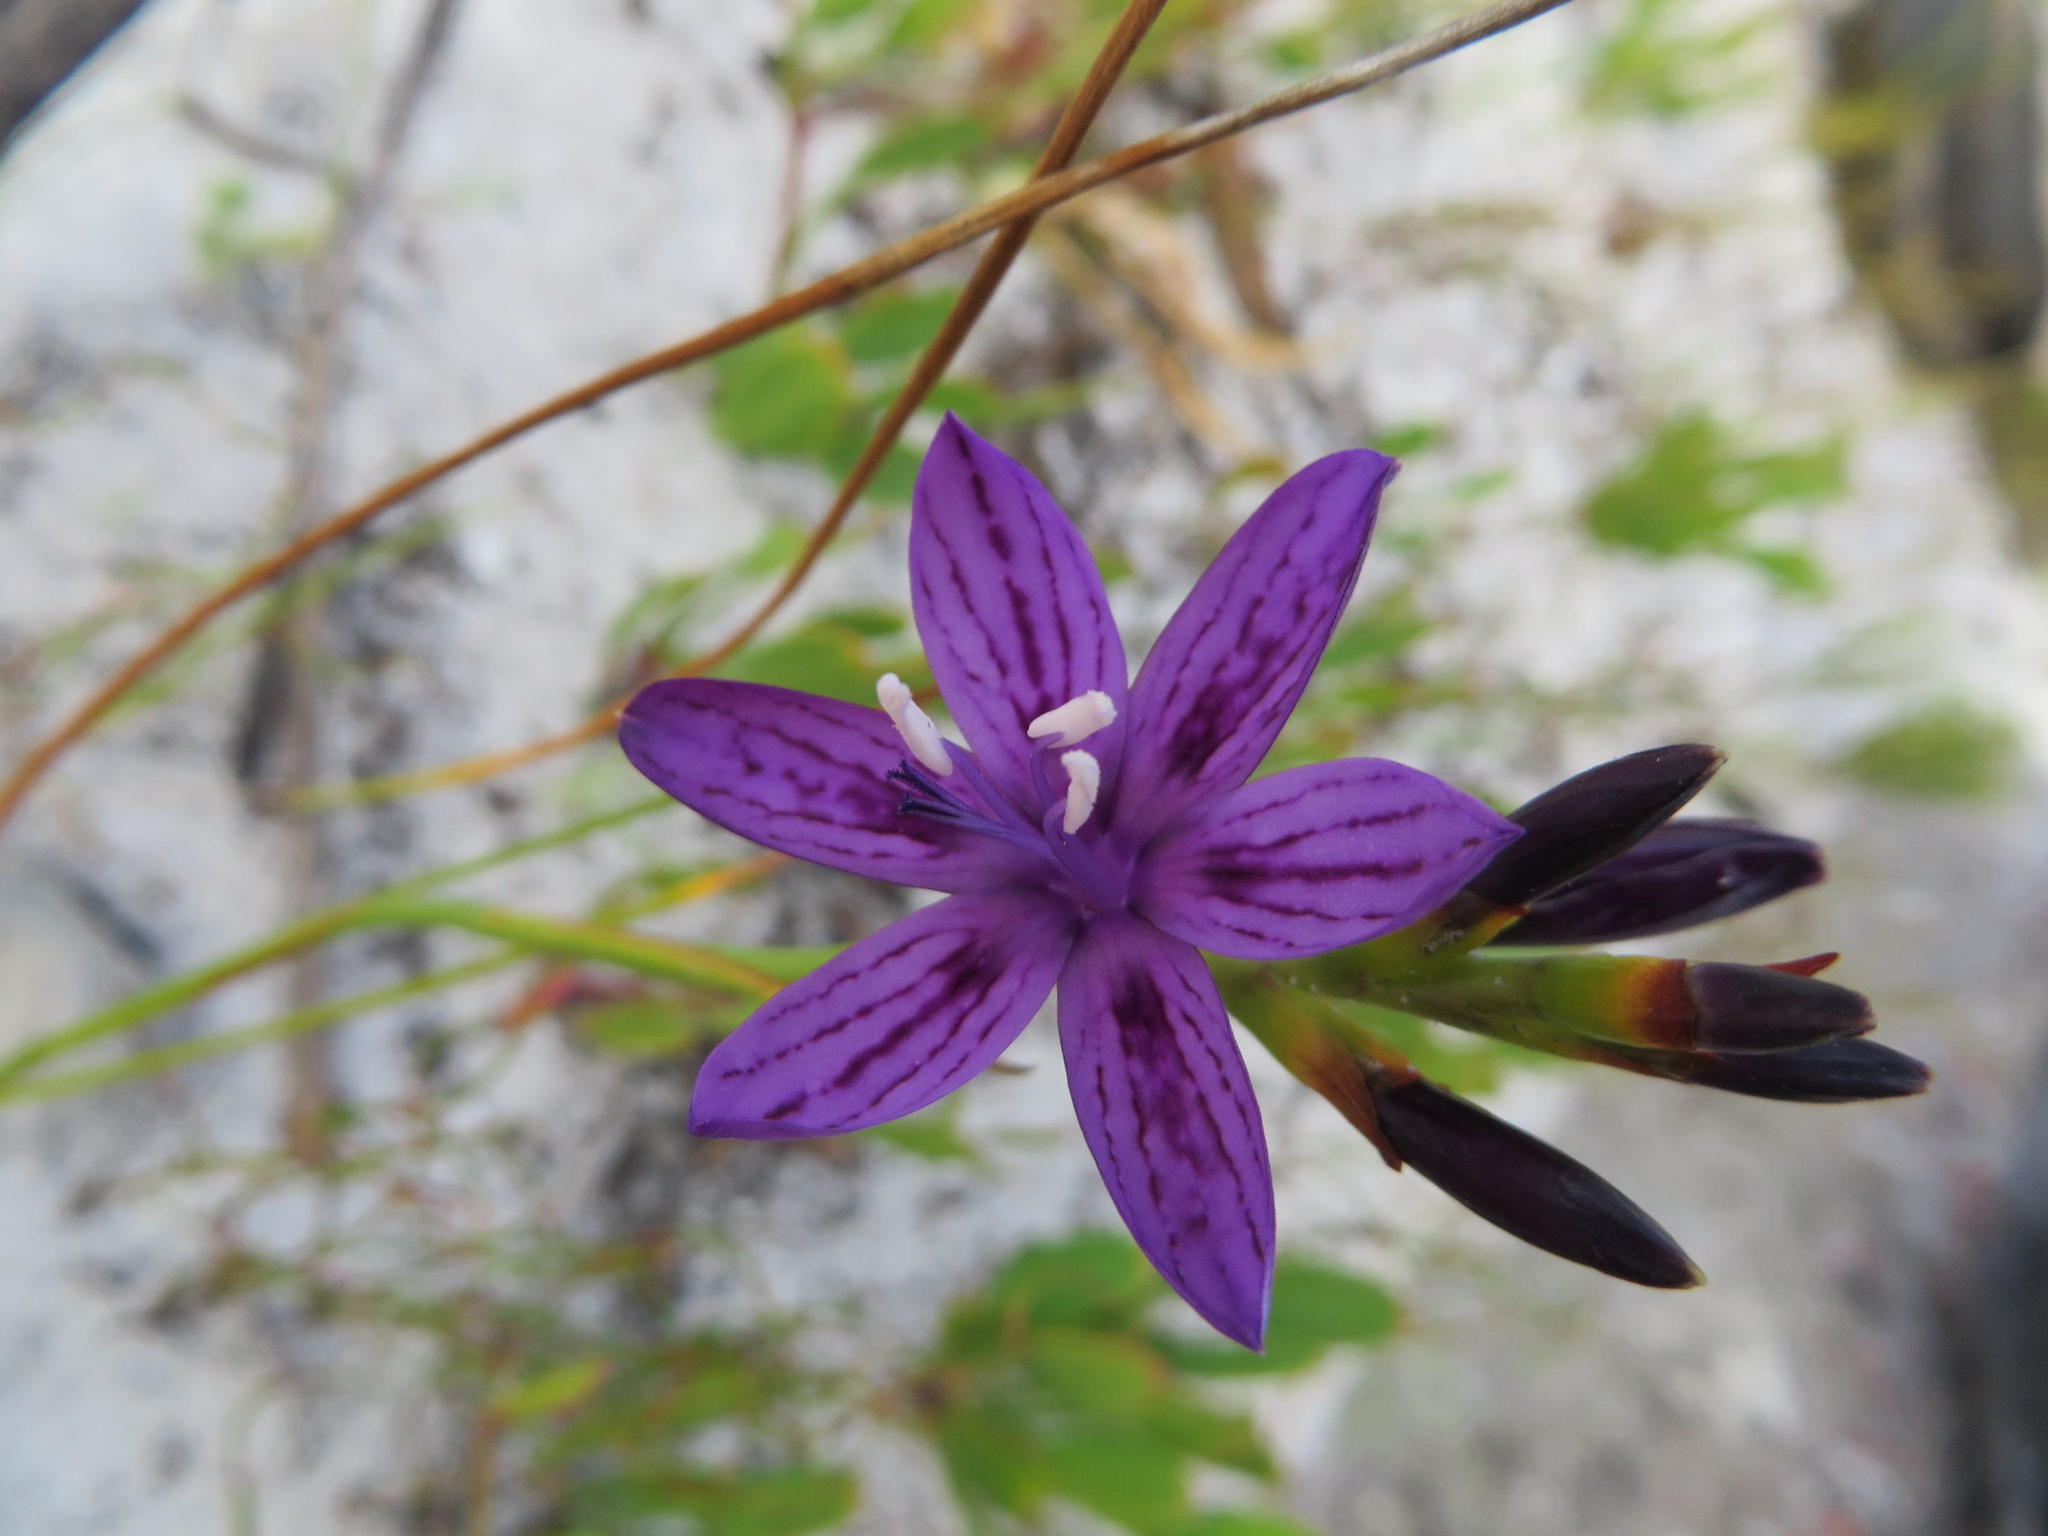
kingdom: Plantae
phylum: Tracheophyta
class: Liliopsida
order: Asparagales
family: Iridaceae
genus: Thereianthus
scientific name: Thereianthus bracteolatus
